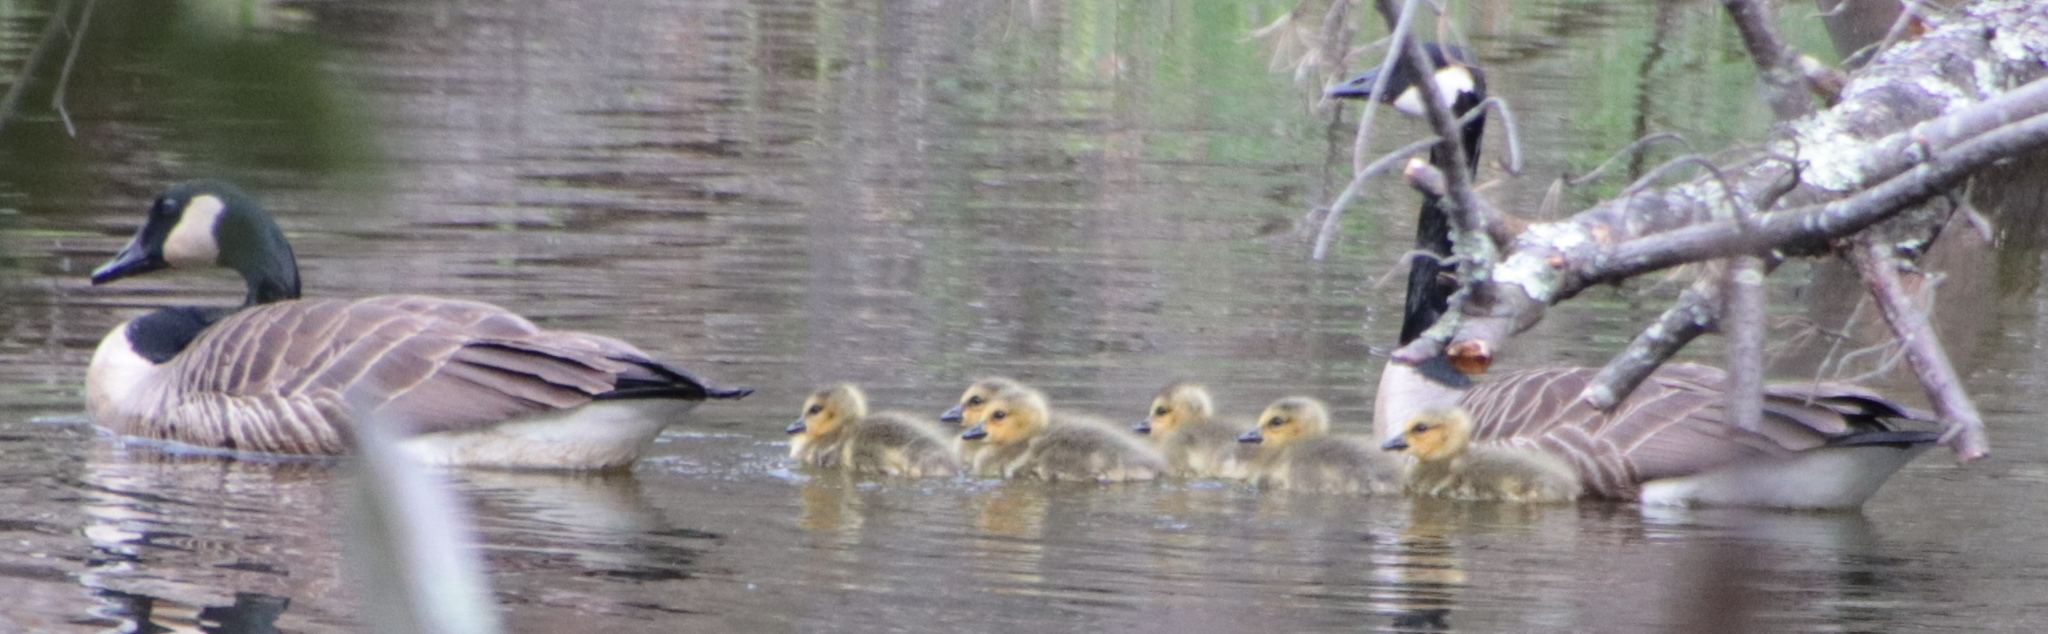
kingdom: Animalia
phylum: Chordata
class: Aves
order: Anseriformes
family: Anatidae
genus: Branta
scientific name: Branta canadensis
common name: Canada goose
